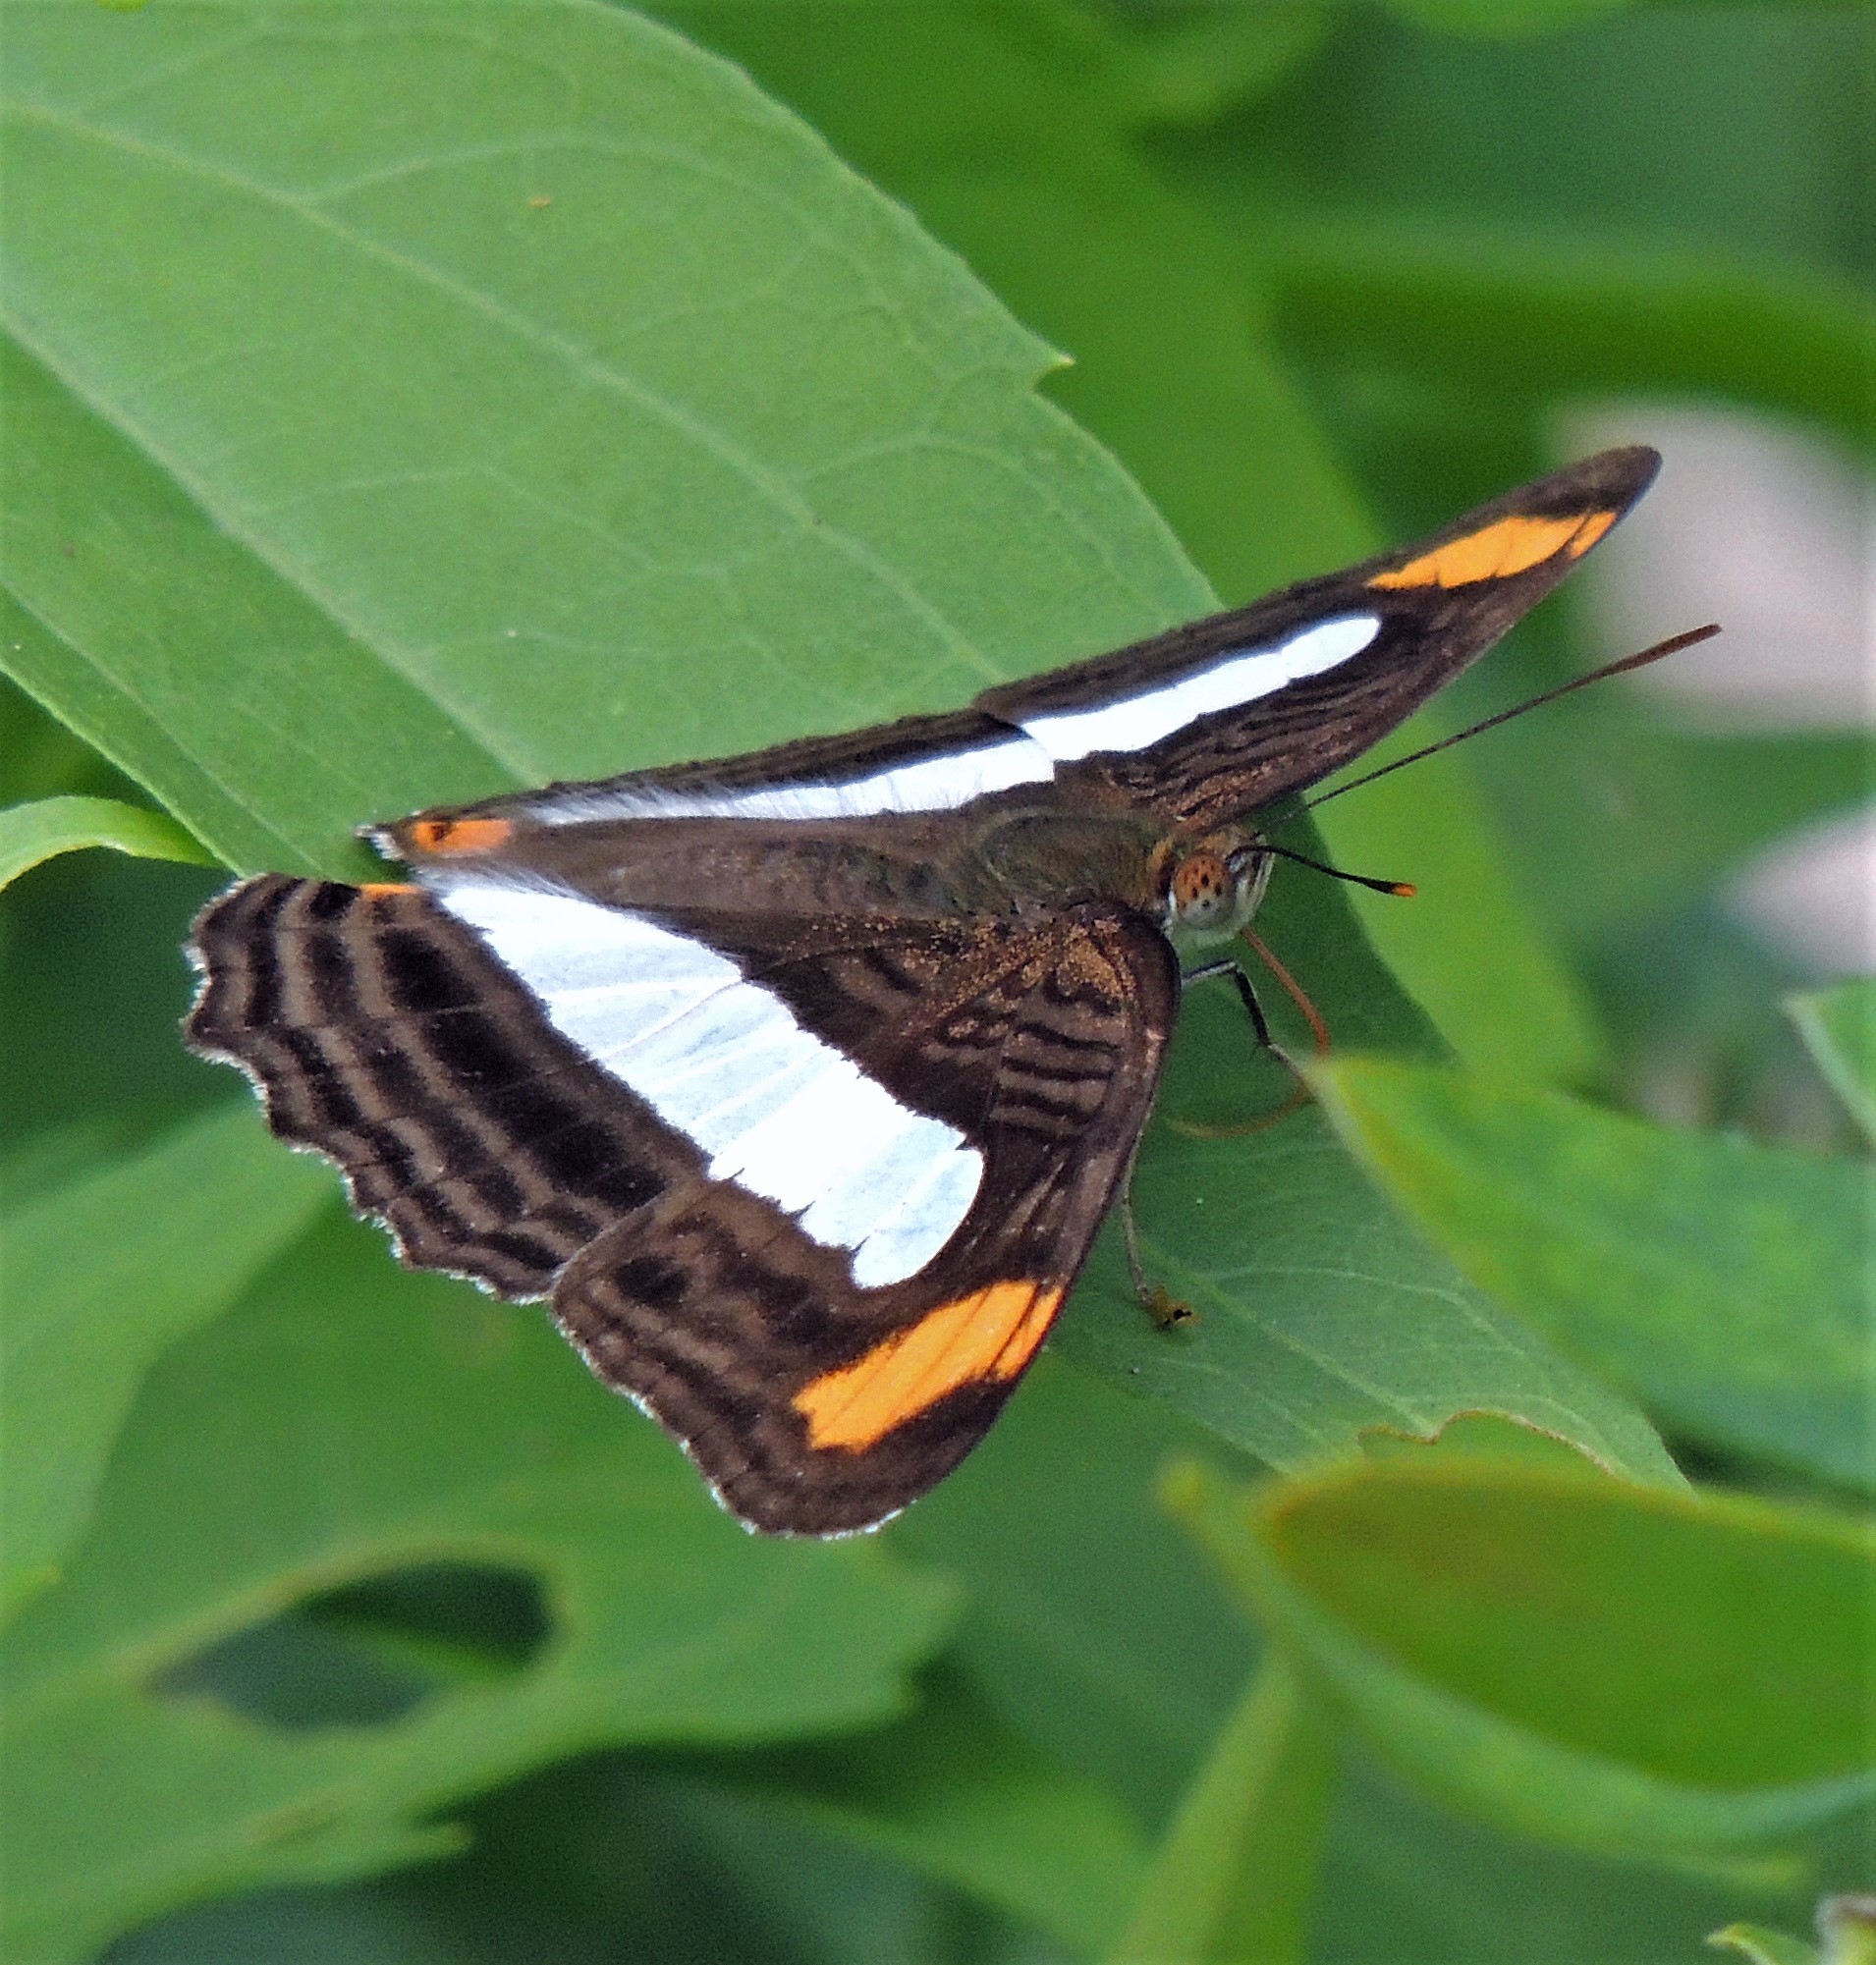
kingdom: Animalia
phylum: Arthropoda
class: Insecta
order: Lepidoptera
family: Nymphalidae
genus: Limenitis
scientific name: Limenitis iphiclus
